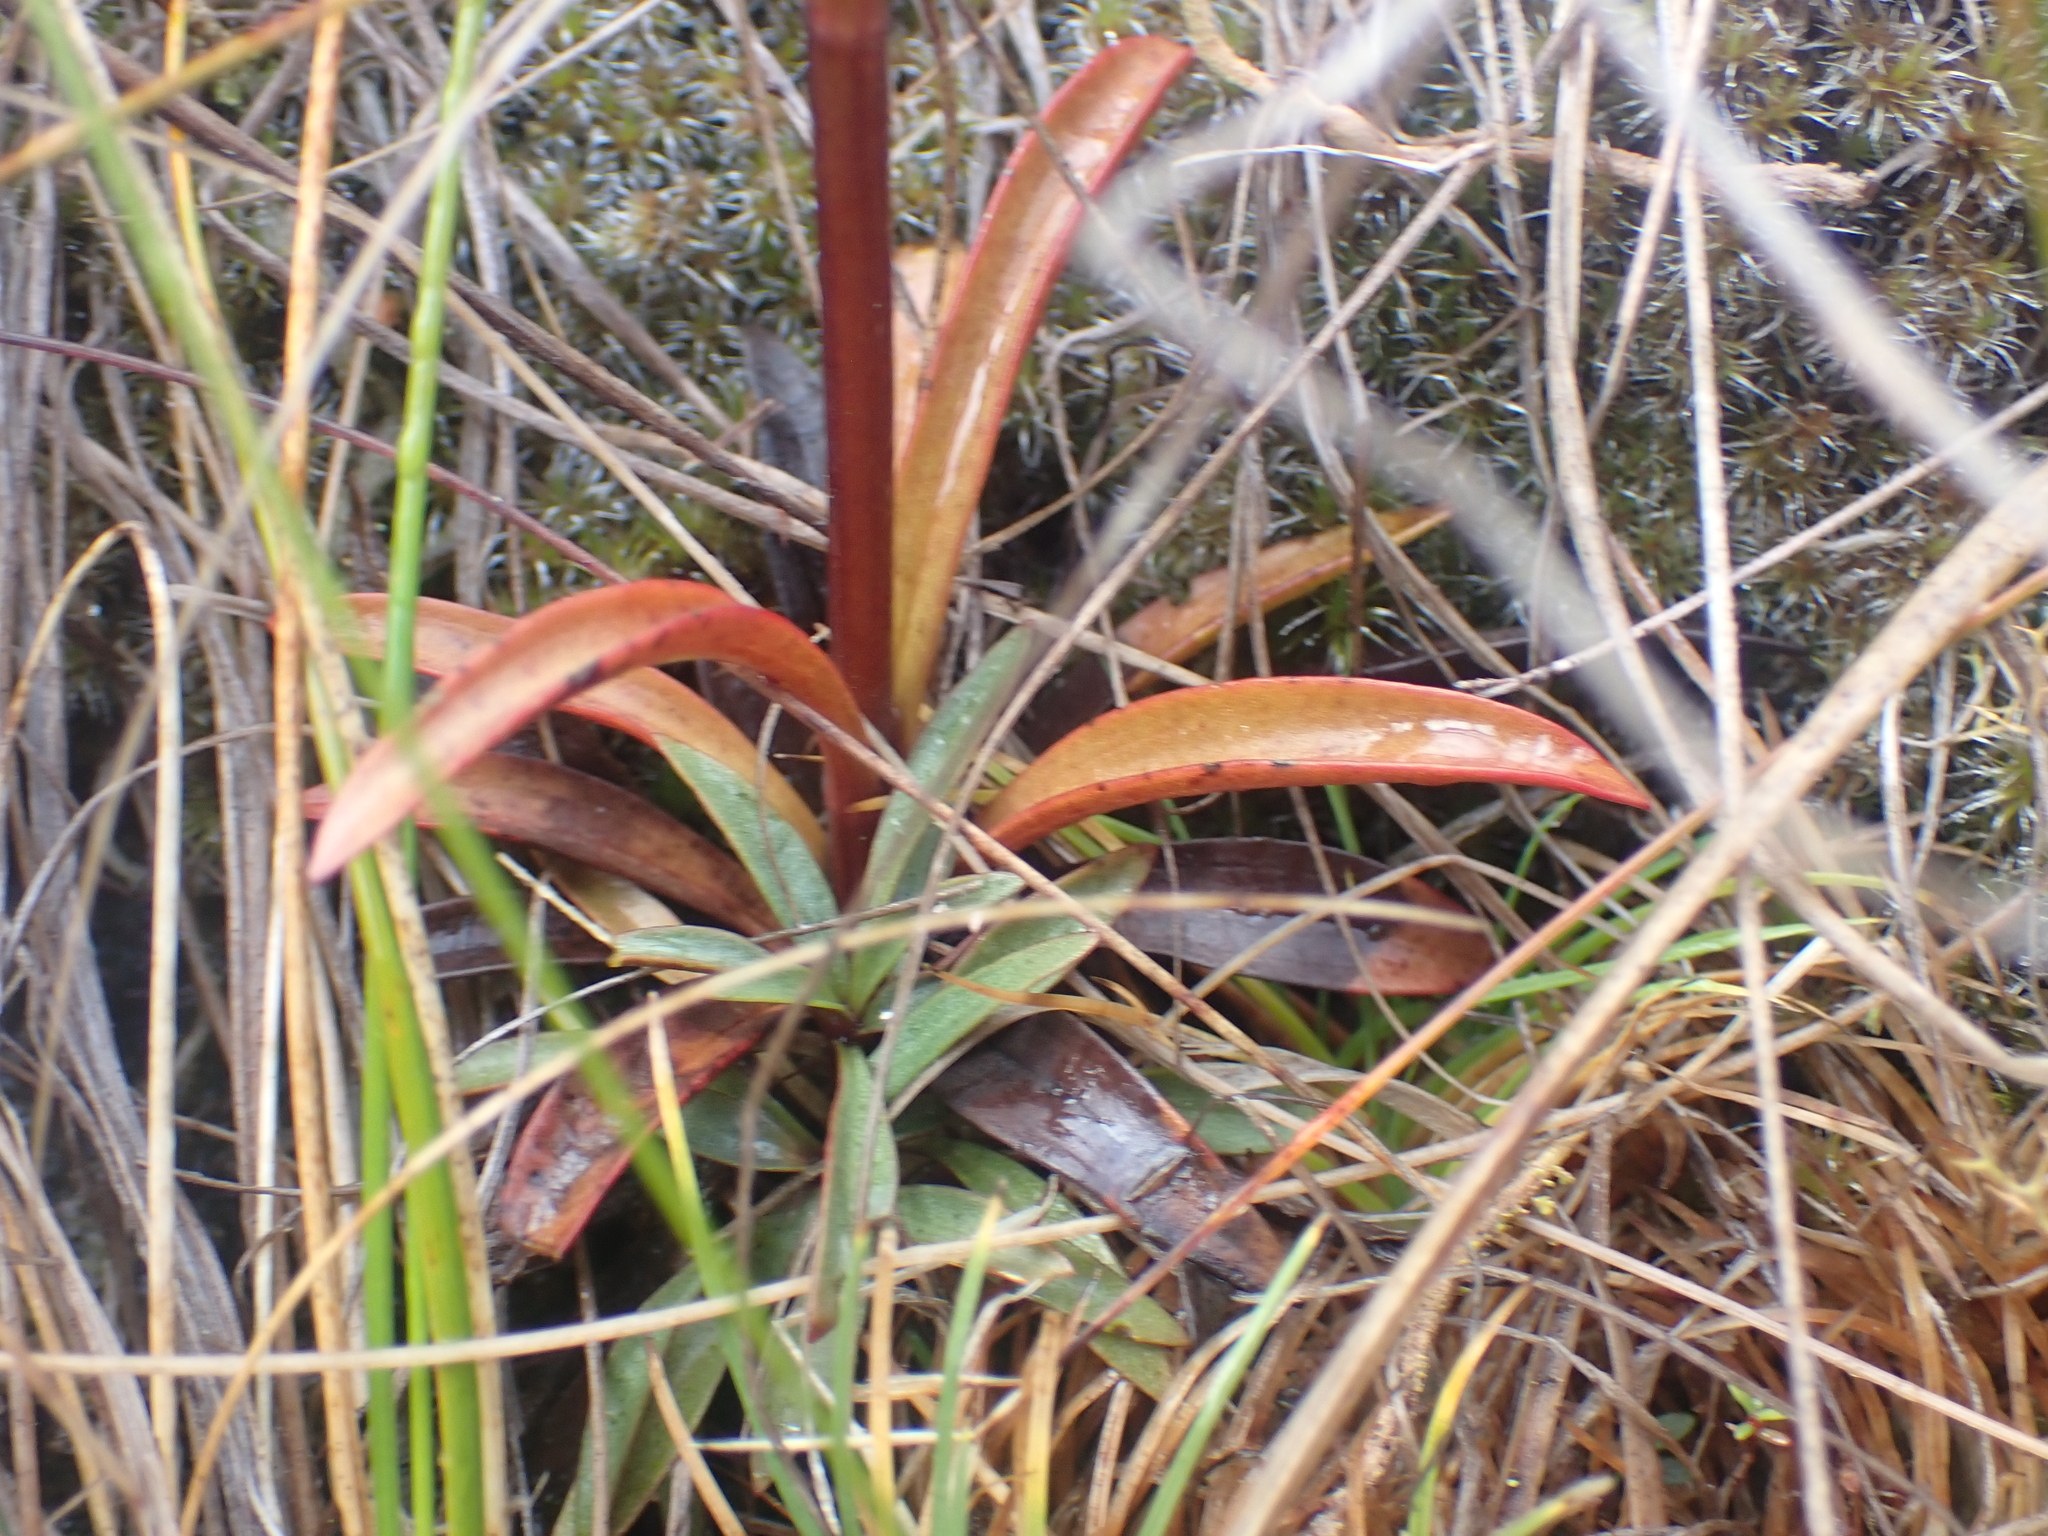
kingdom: Plantae
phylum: Tracheophyta
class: Magnoliopsida
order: Gentianales
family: Gentianaceae
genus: Gentianella
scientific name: Gentianella stellata
